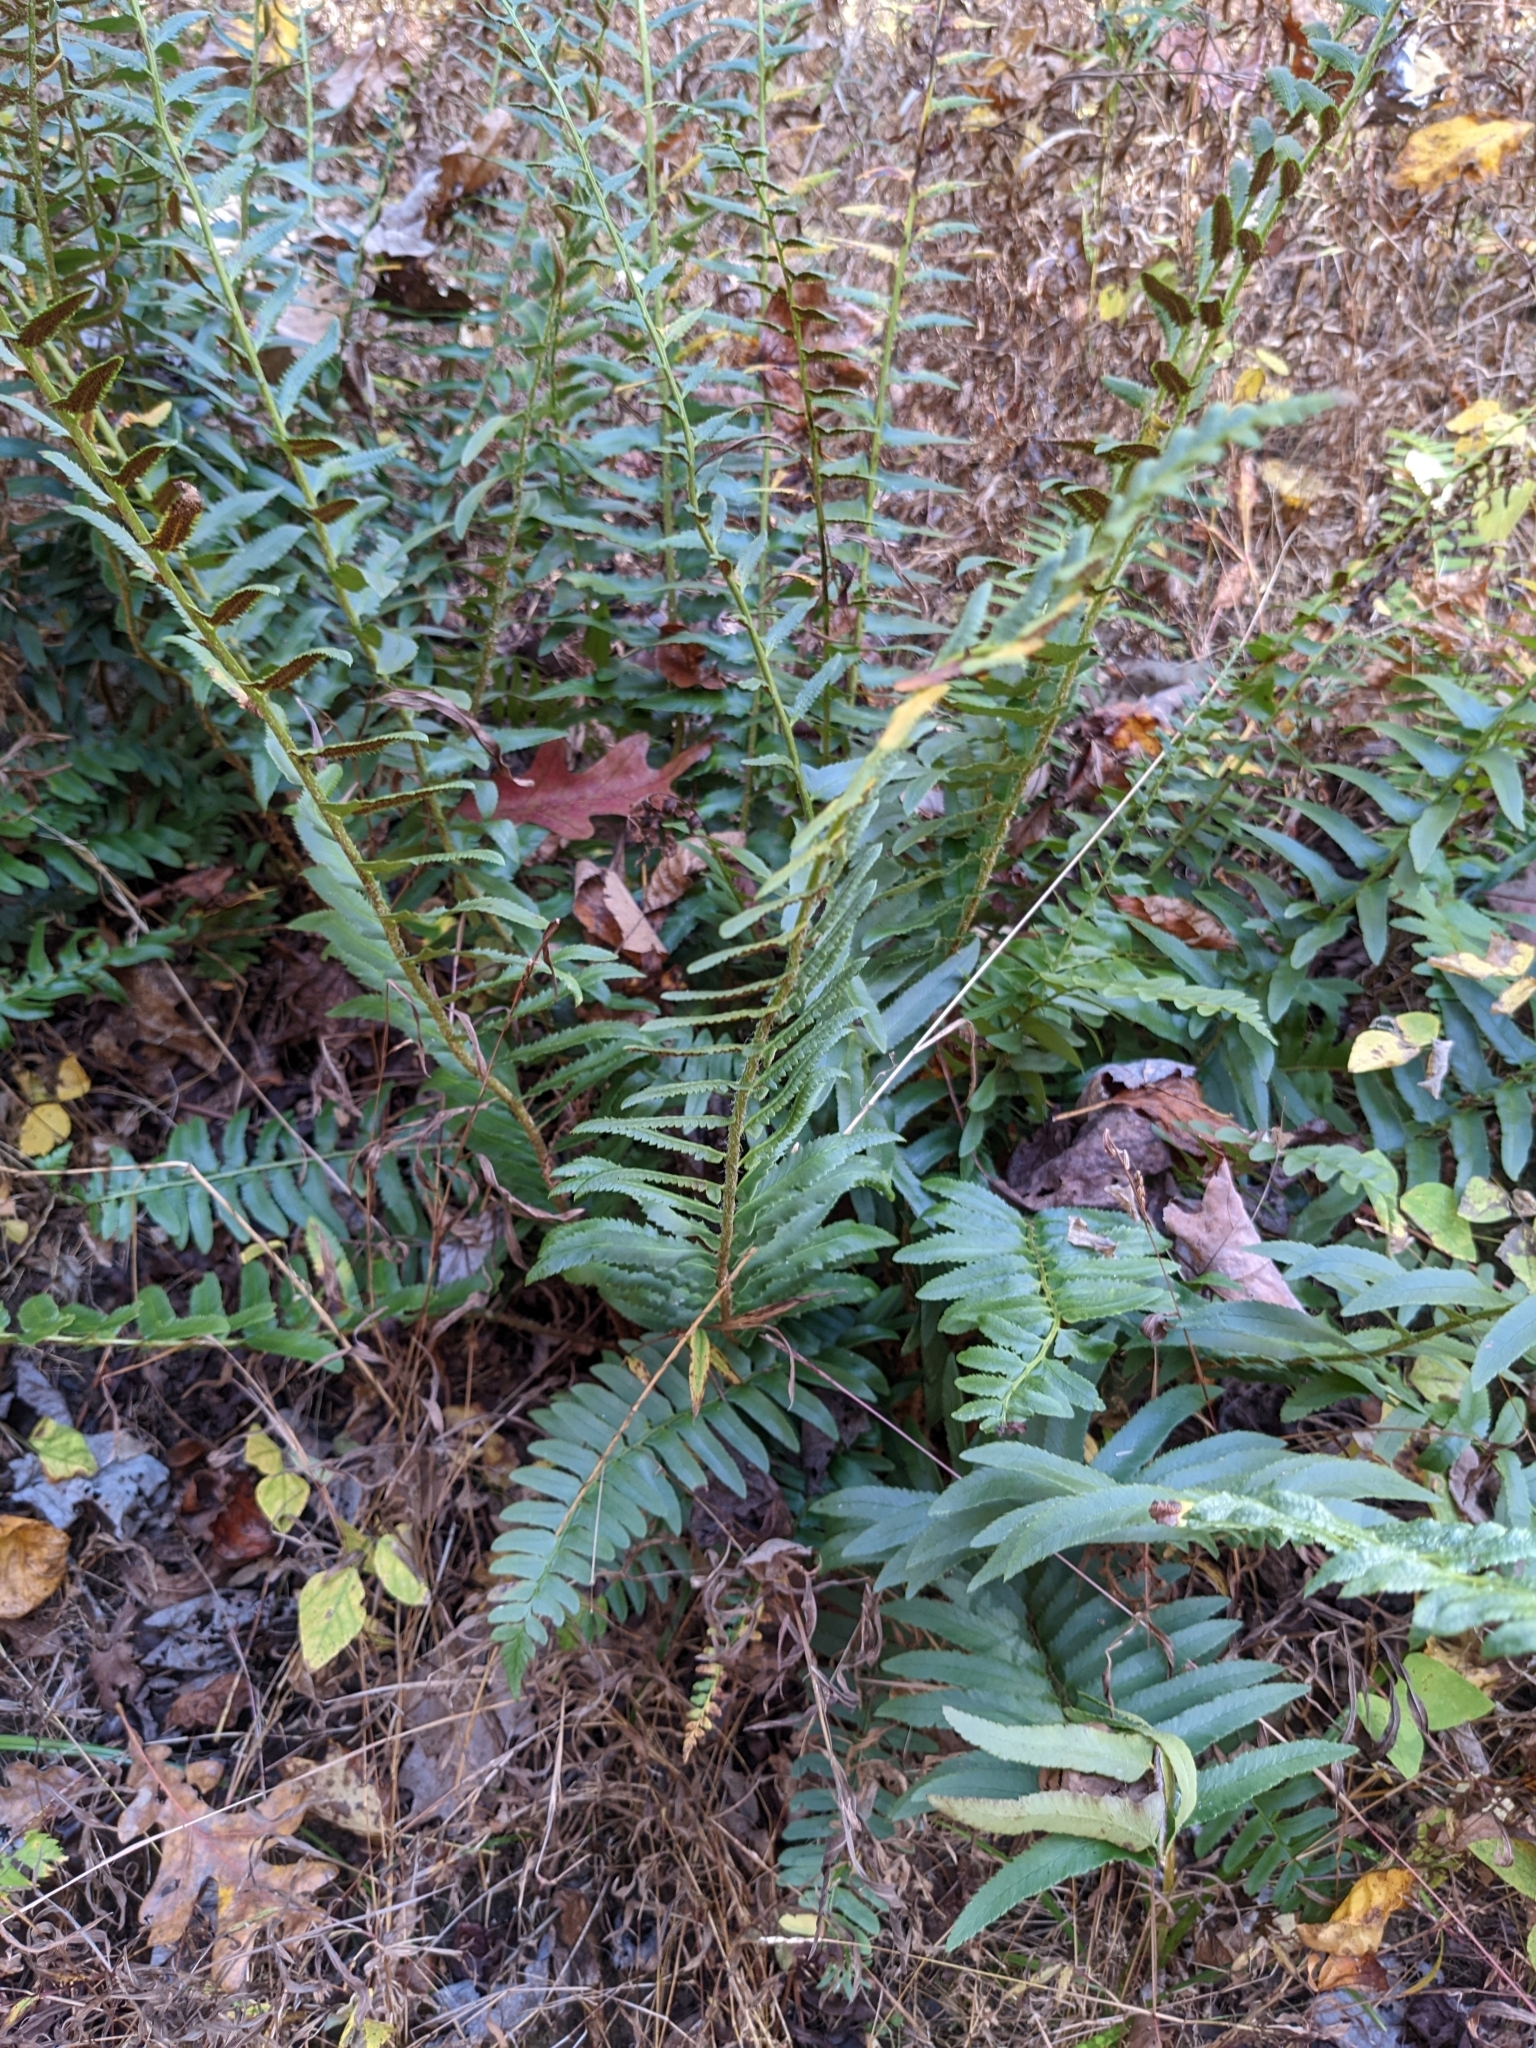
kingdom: Plantae
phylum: Tracheophyta
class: Polypodiopsida
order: Polypodiales
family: Dryopteridaceae
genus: Polystichum
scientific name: Polystichum acrostichoides
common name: Christmas fern
